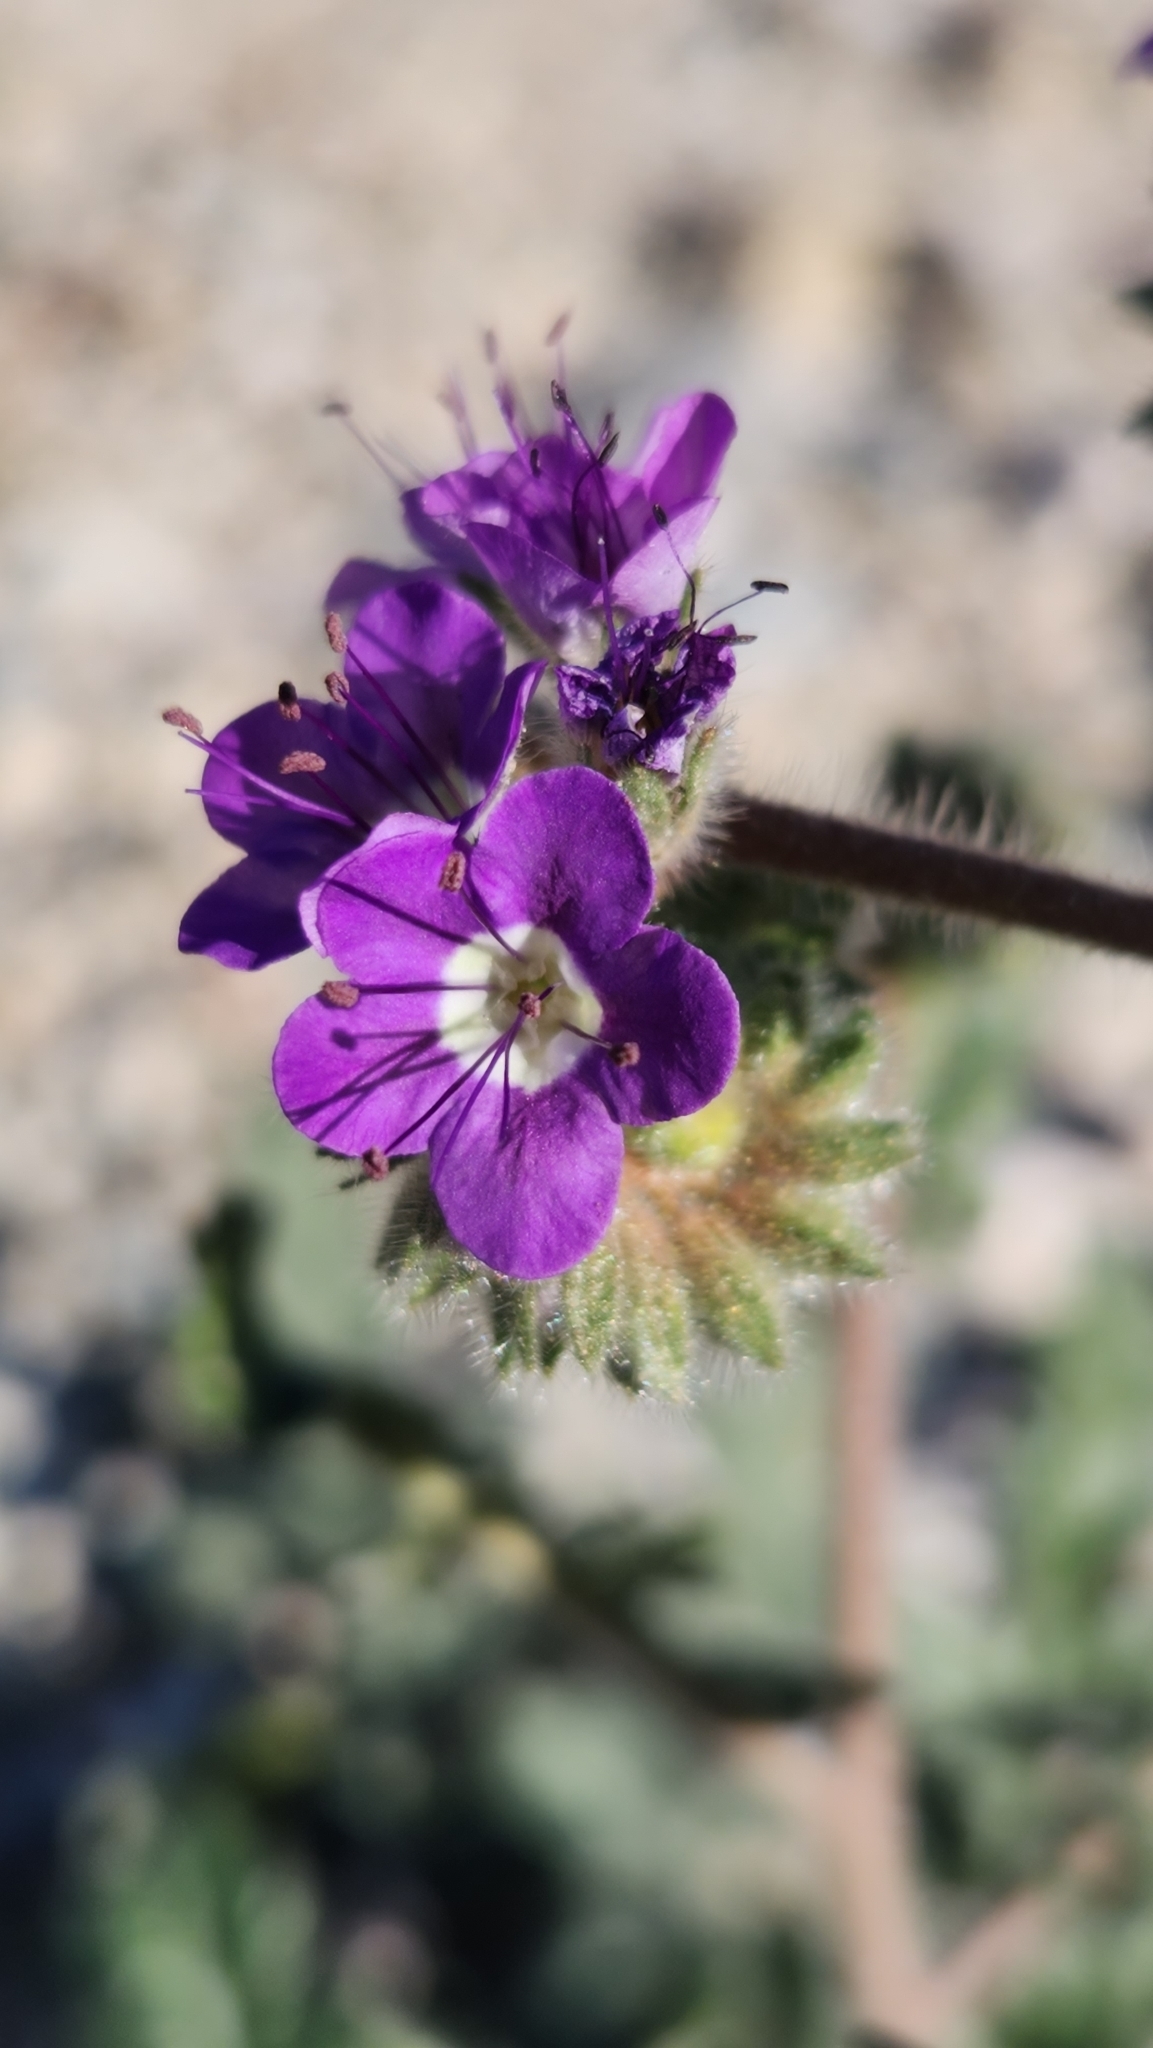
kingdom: Plantae
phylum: Tracheophyta
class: Magnoliopsida
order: Boraginales
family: Hydrophyllaceae
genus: Phacelia
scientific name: Phacelia crenulata
